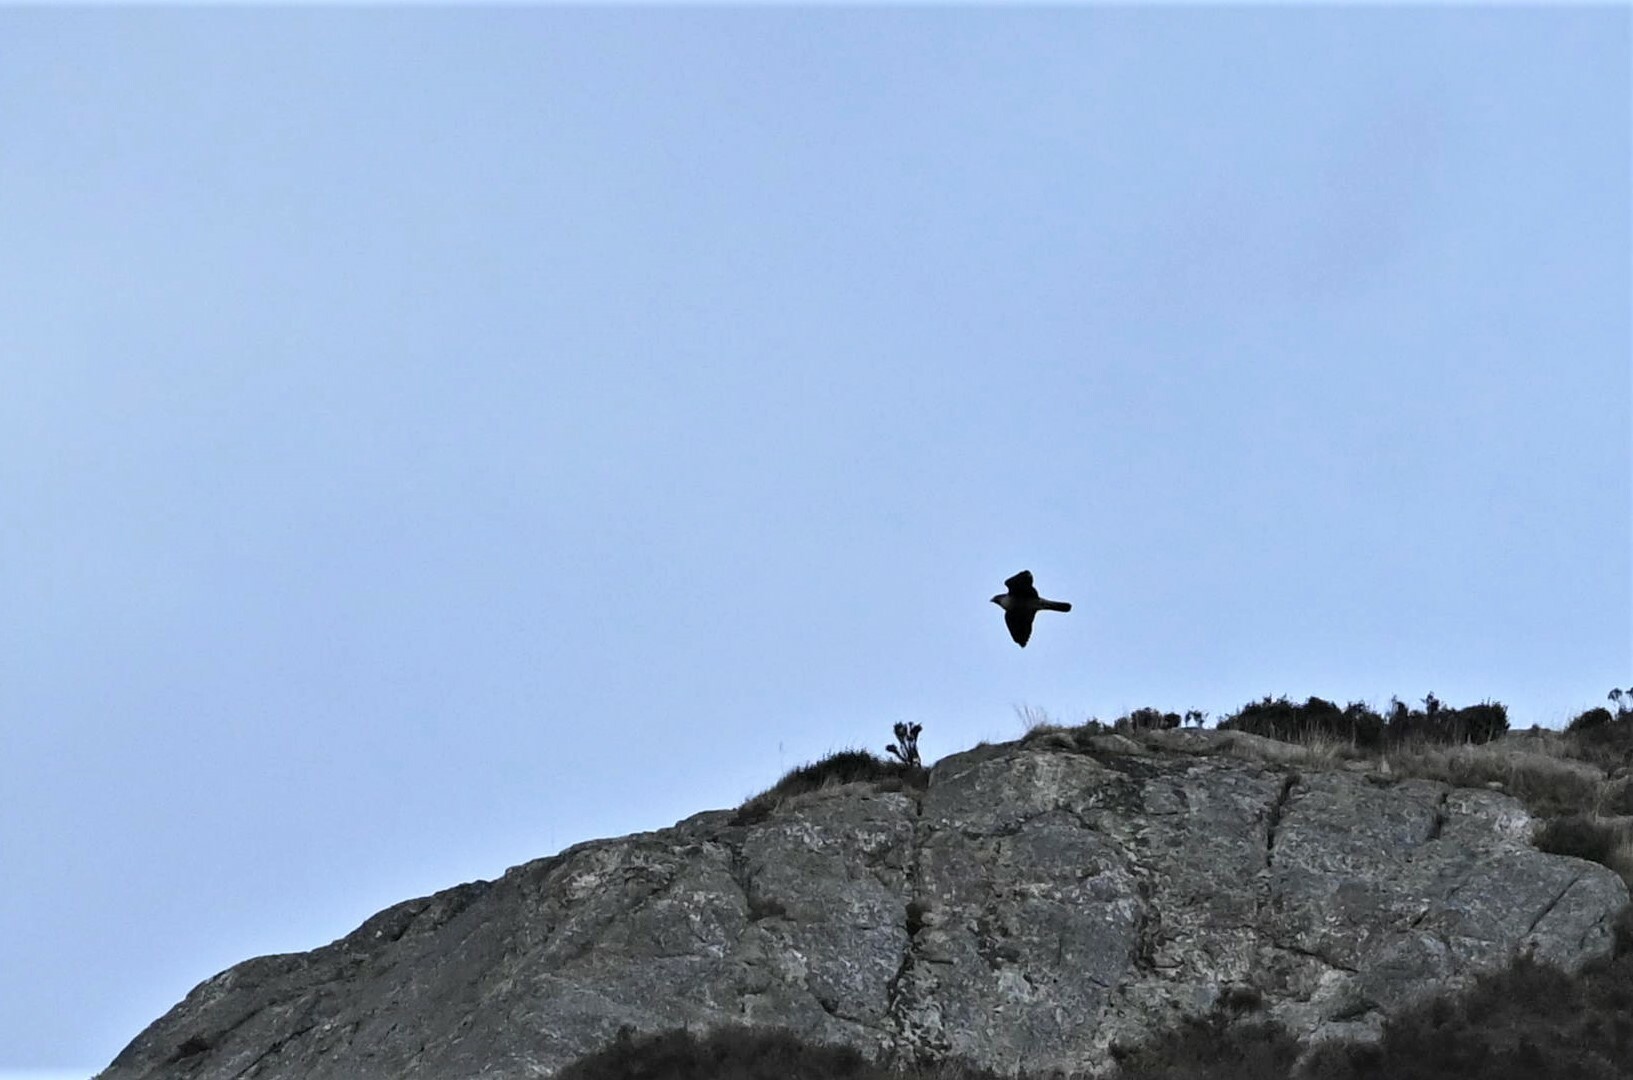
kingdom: Animalia
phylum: Chordata
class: Aves
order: Passeriformes
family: Corvidae
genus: Coloeus
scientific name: Coloeus monedula
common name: Western jackdaw
